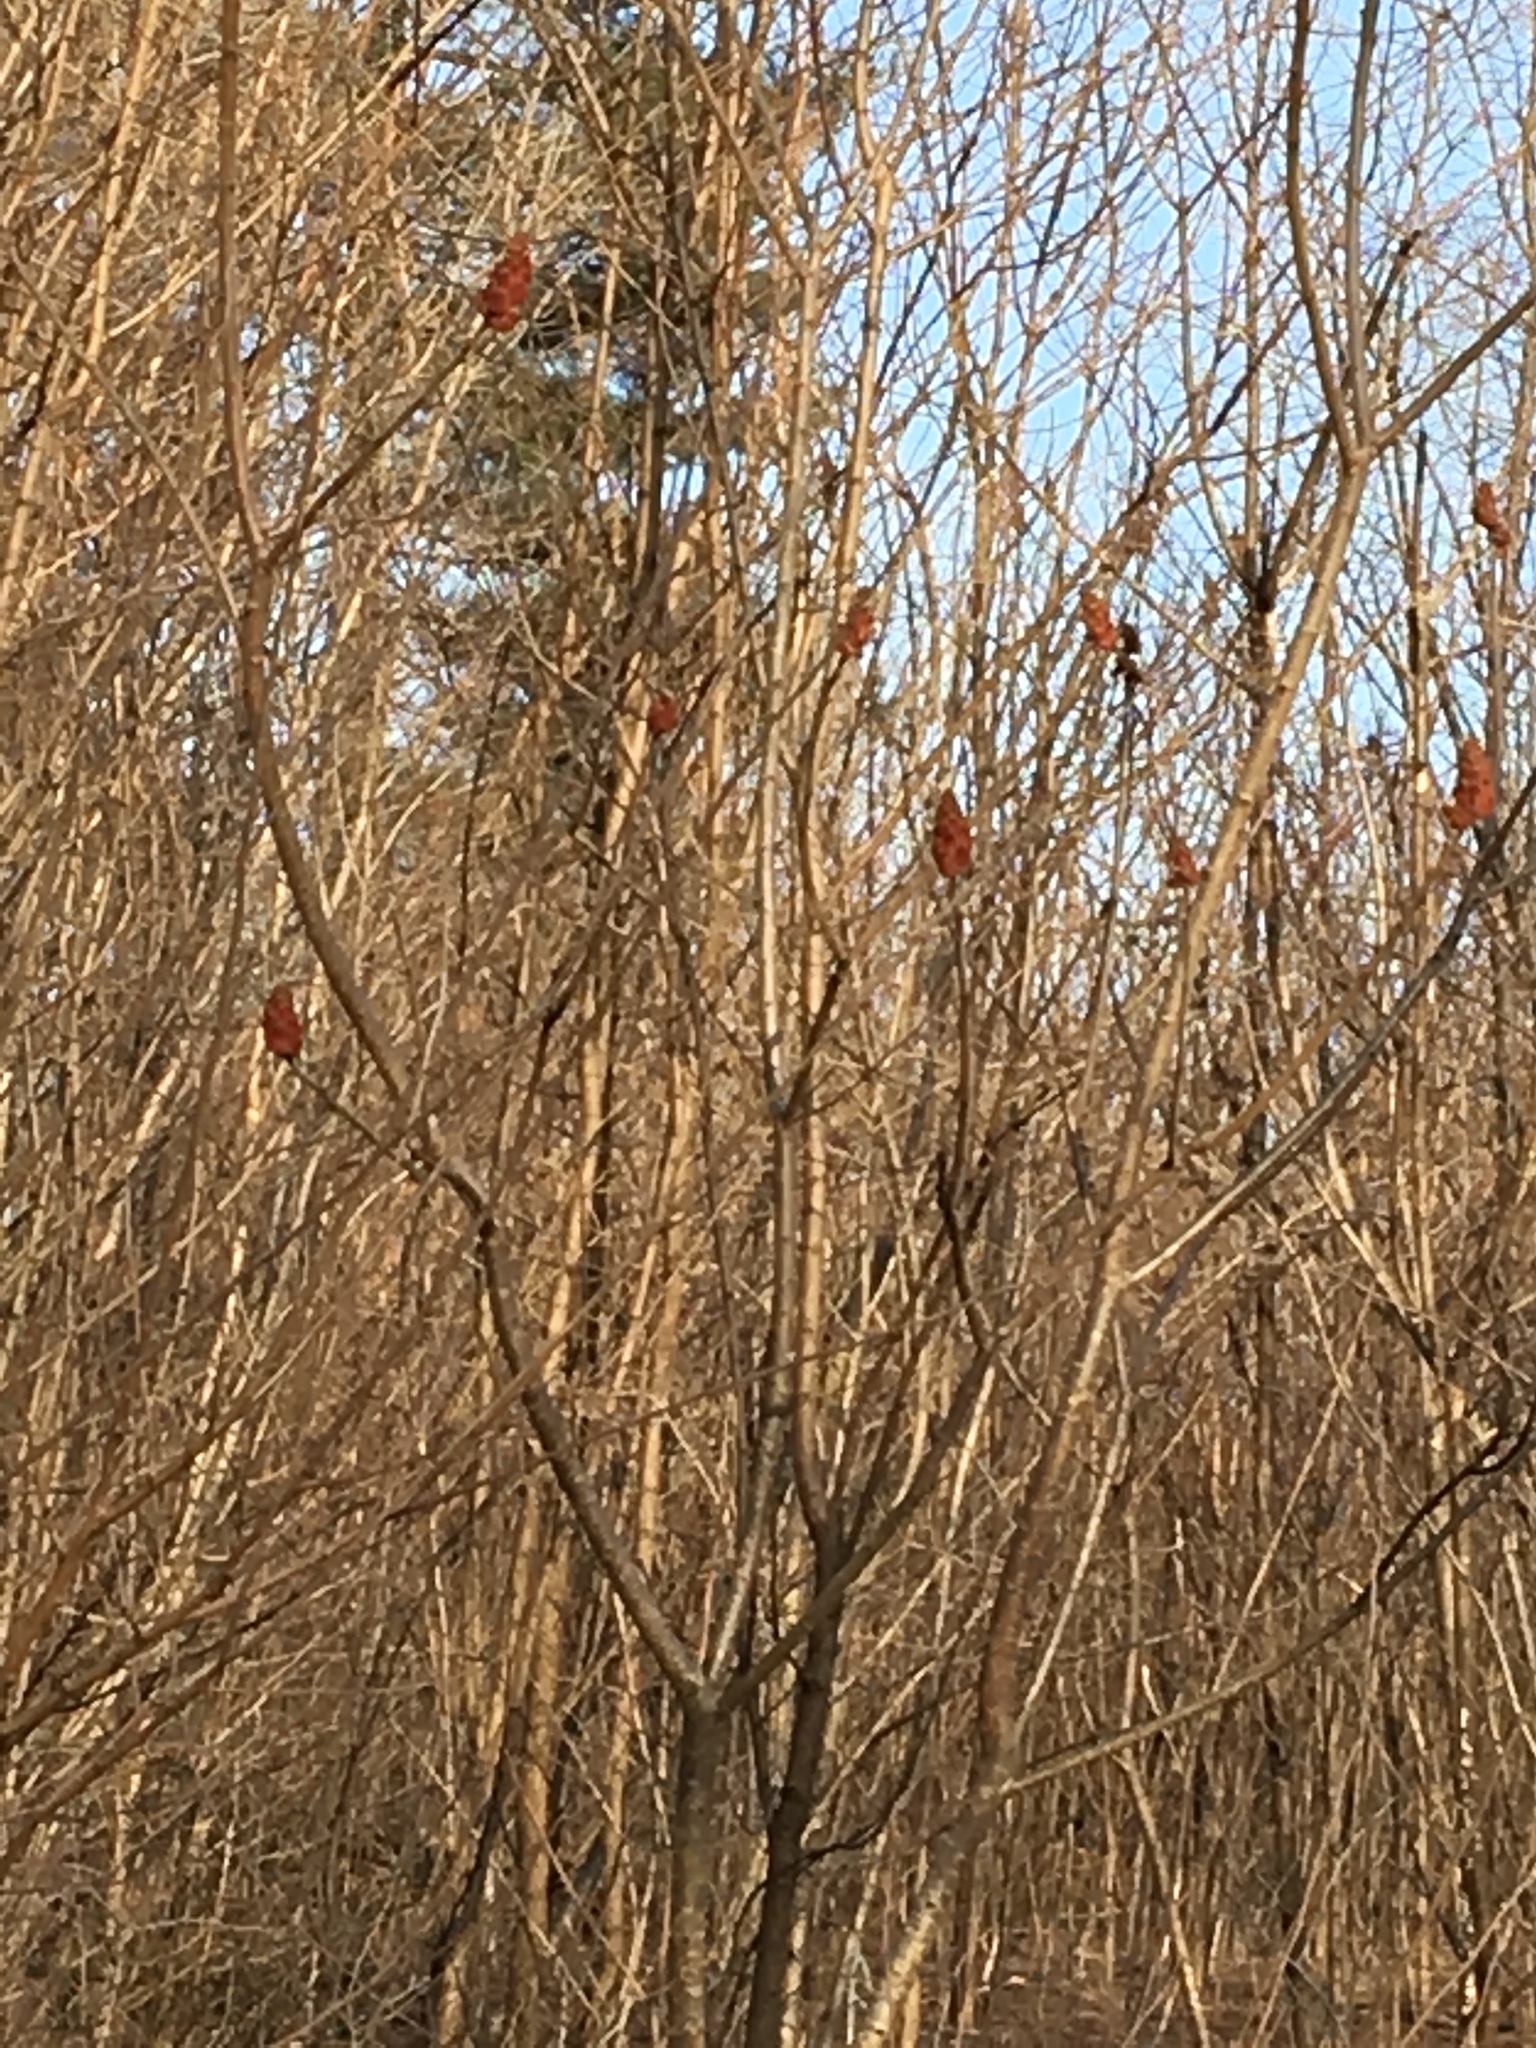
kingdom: Plantae
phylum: Tracheophyta
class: Magnoliopsida
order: Sapindales
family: Anacardiaceae
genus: Rhus
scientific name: Rhus typhina
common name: Staghorn sumac
